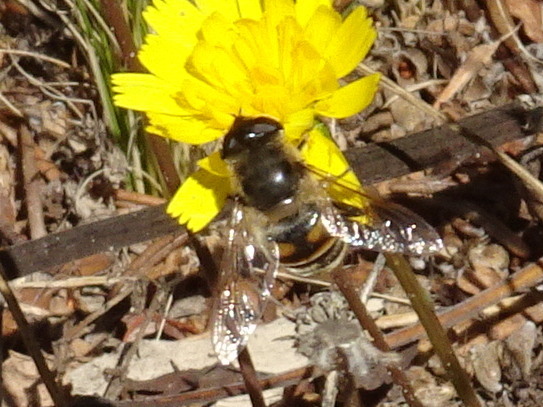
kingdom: Animalia
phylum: Arthropoda
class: Insecta
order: Diptera
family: Syrphidae
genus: Eristalis
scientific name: Eristalis tenax
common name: Drone fly
